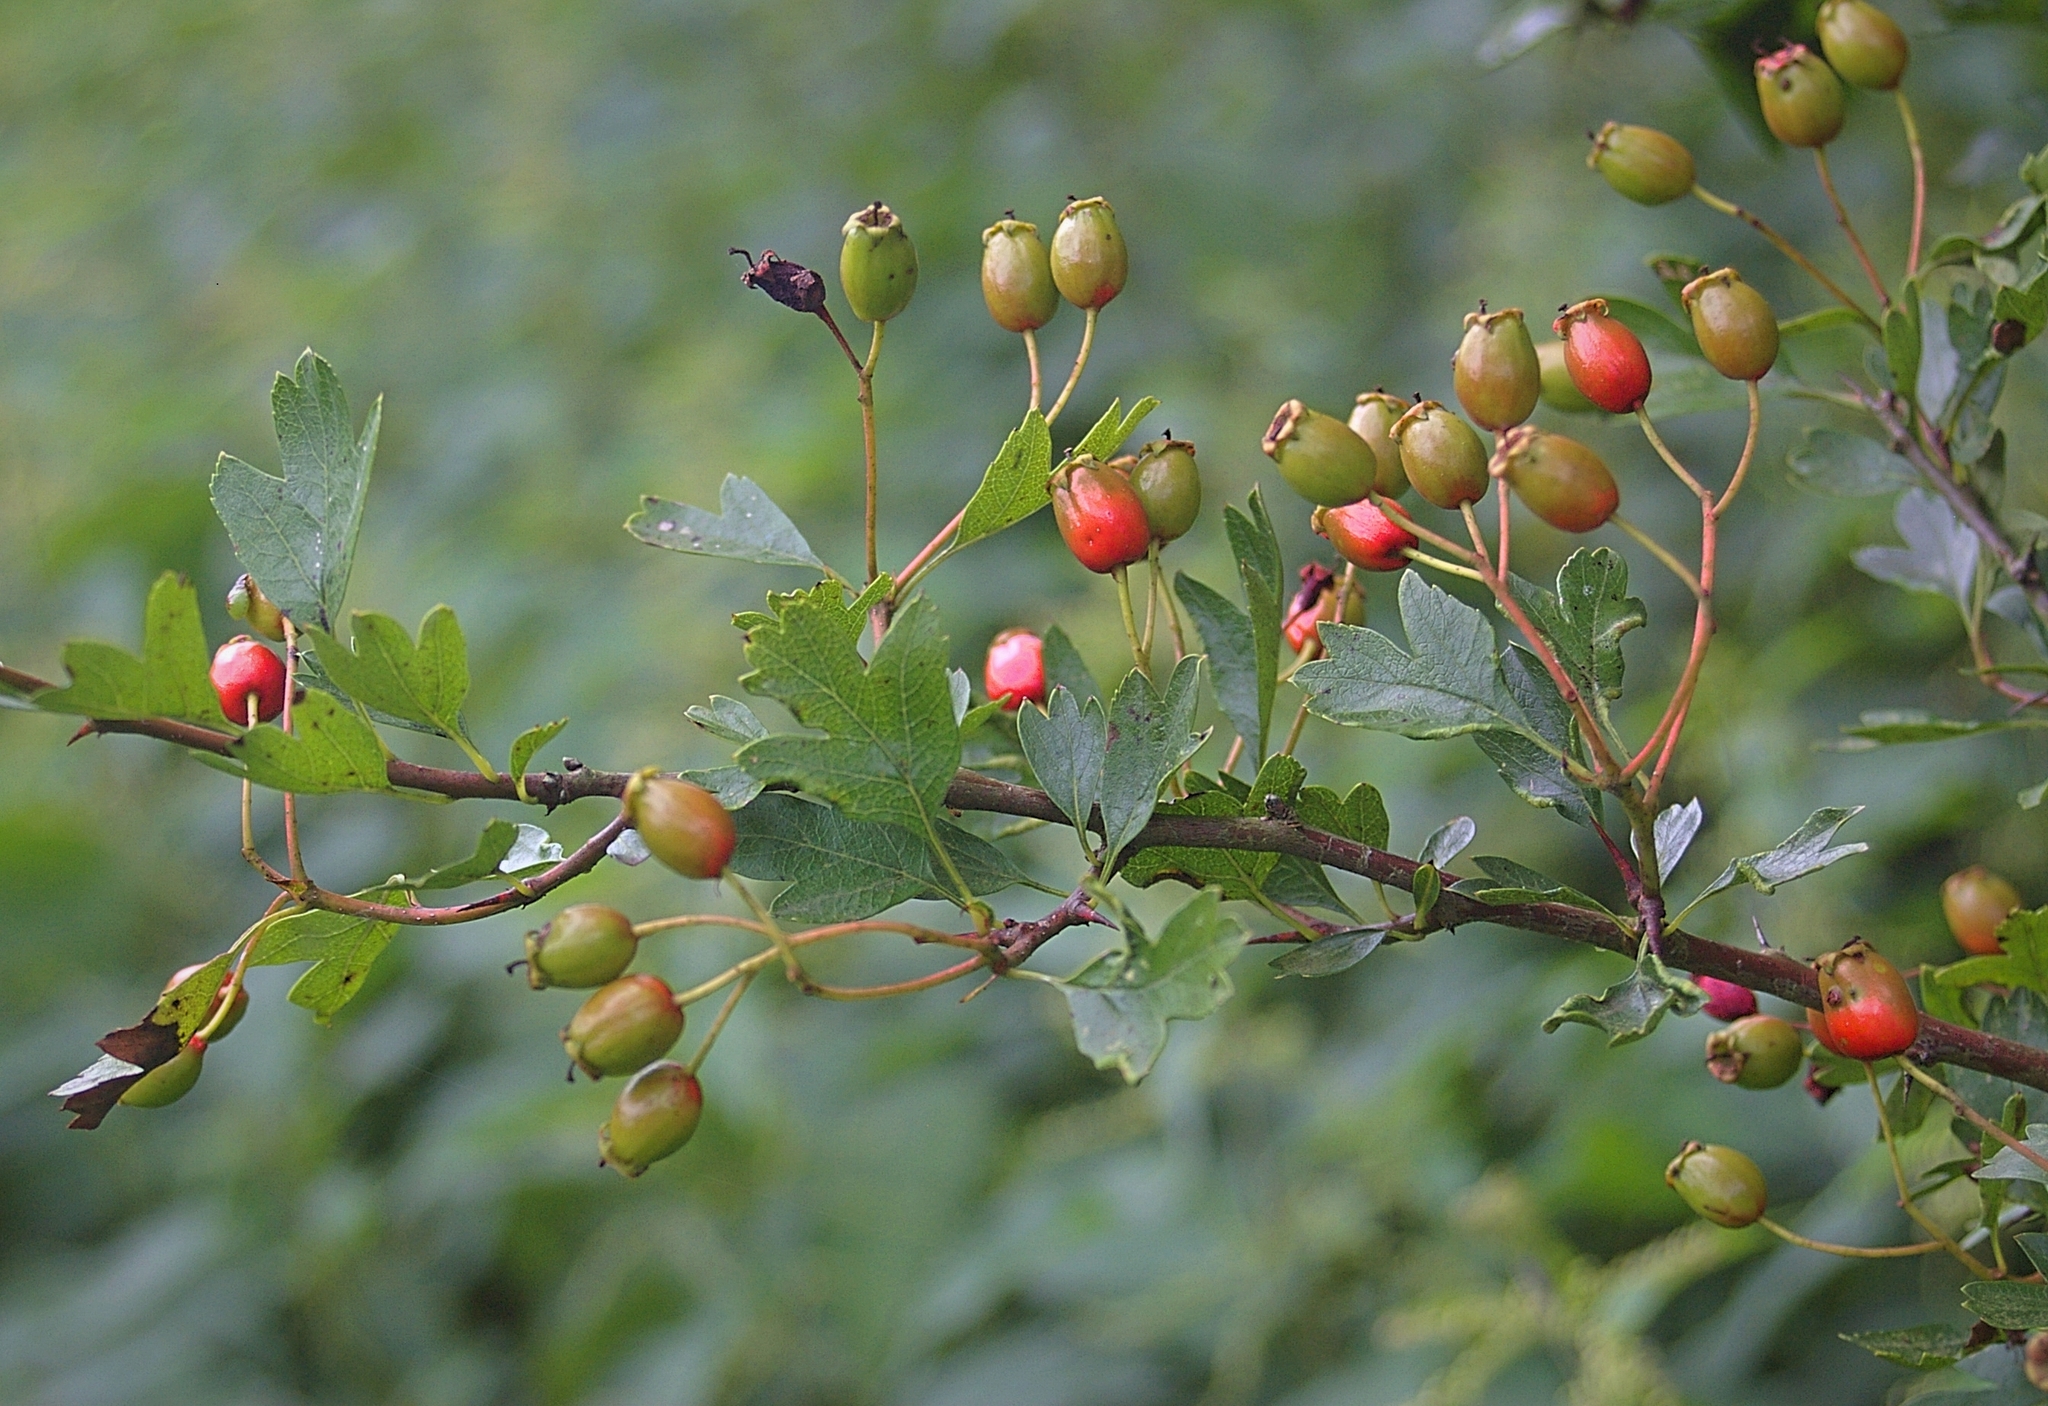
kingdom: Plantae
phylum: Tracheophyta
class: Magnoliopsida
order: Rosales
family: Rosaceae
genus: Crataegus
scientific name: Crataegus monogyna
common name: Hawthorn
